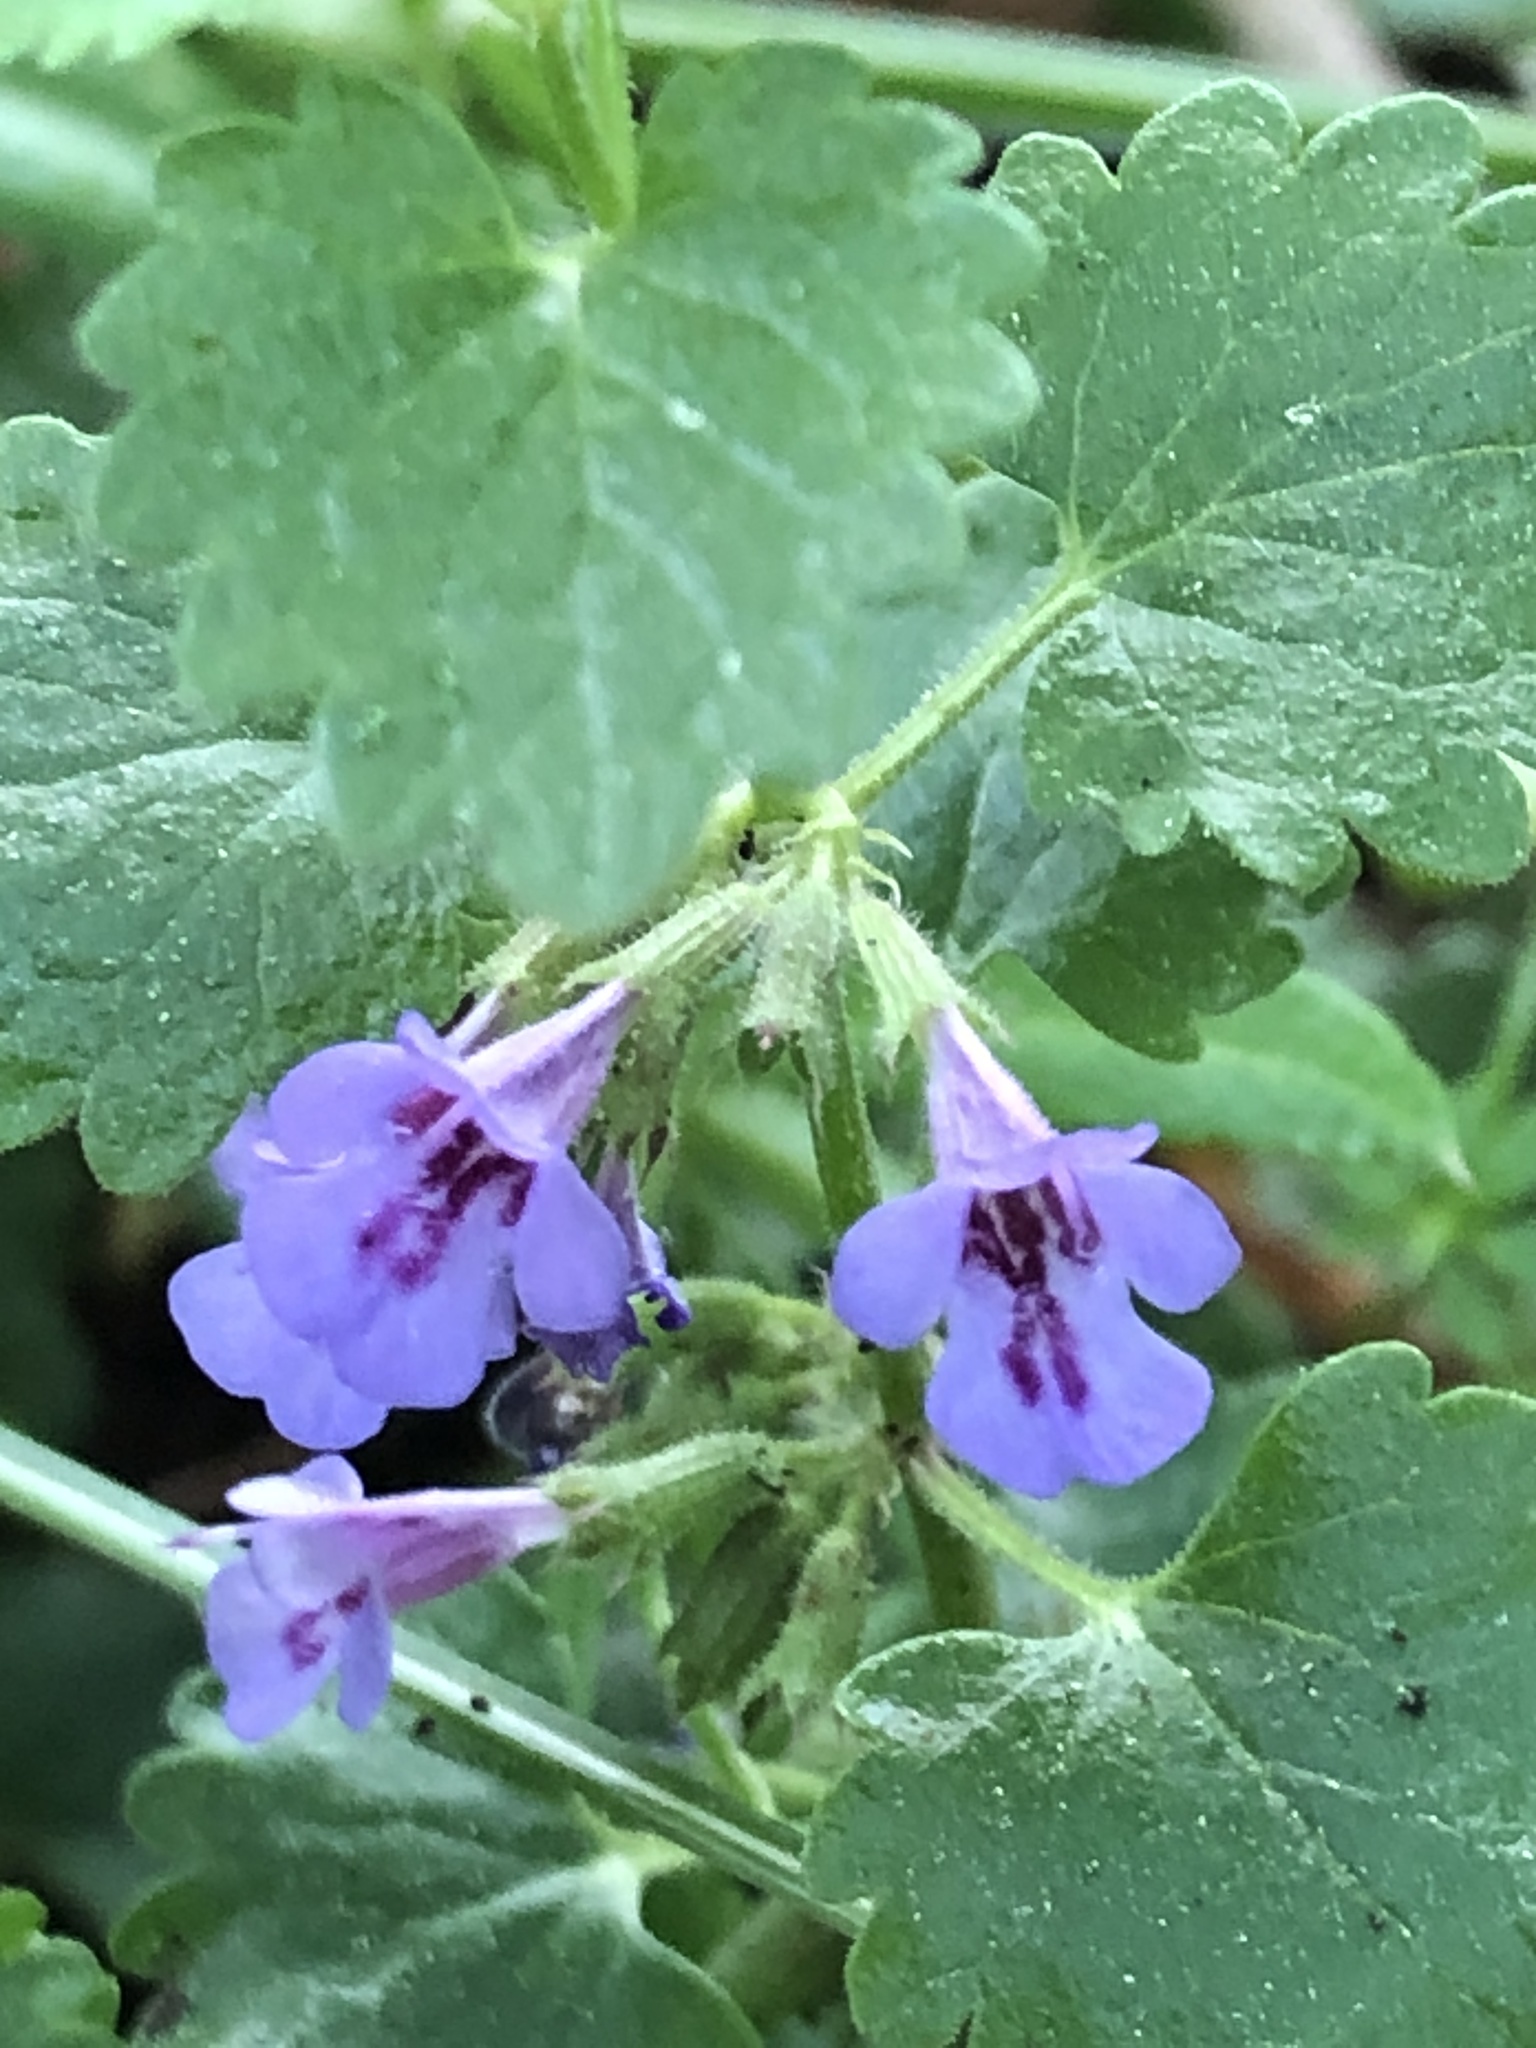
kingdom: Plantae
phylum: Tracheophyta
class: Magnoliopsida
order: Lamiales
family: Lamiaceae
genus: Glechoma
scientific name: Glechoma hederacea
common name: Ground ivy
